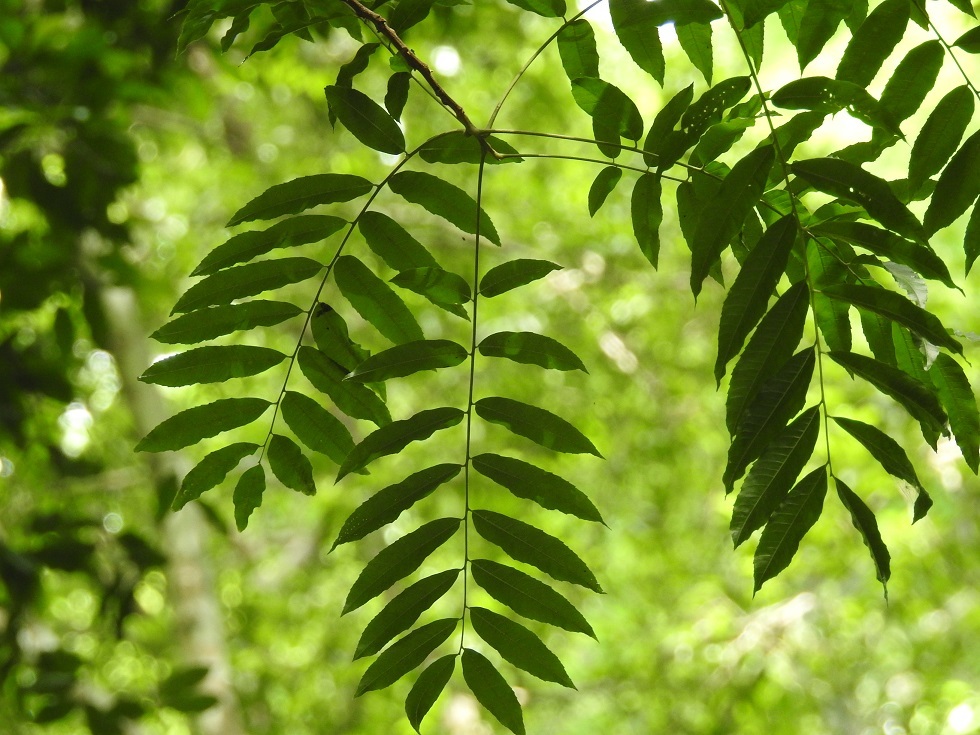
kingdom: Plantae
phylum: Tracheophyta
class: Magnoliopsida
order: Sapindales
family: Anacardiaceae
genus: Astronium
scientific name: Astronium graveolens
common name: Glassywood
